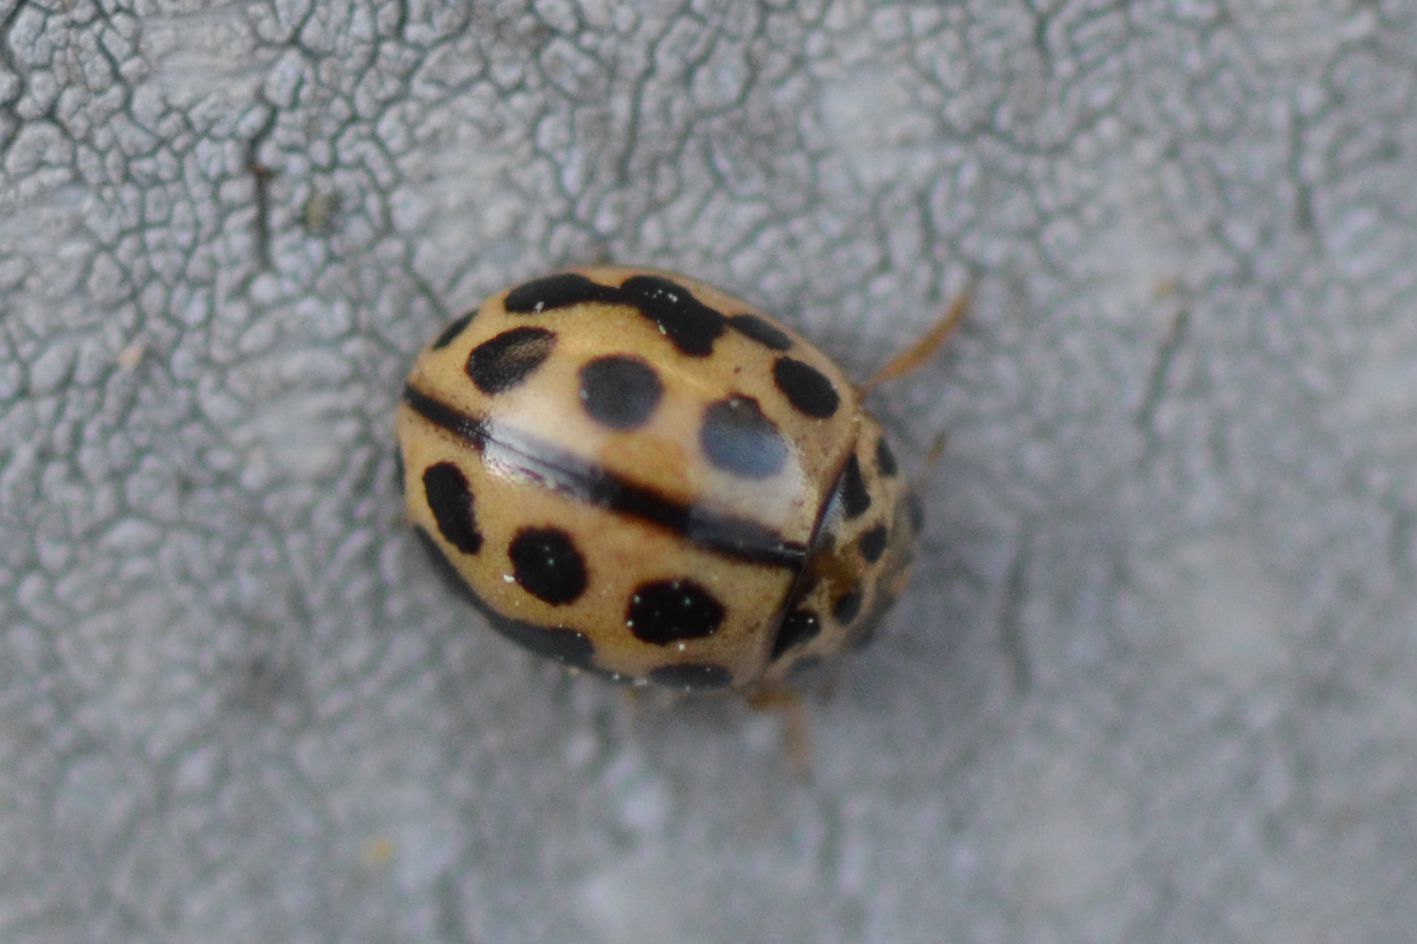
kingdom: Animalia
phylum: Arthropoda
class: Insecta
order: Coleoptera
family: Coccinellidae
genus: Tytthaspis
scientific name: Tytthaspis sedecimpunctata
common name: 16-spot ladybird
